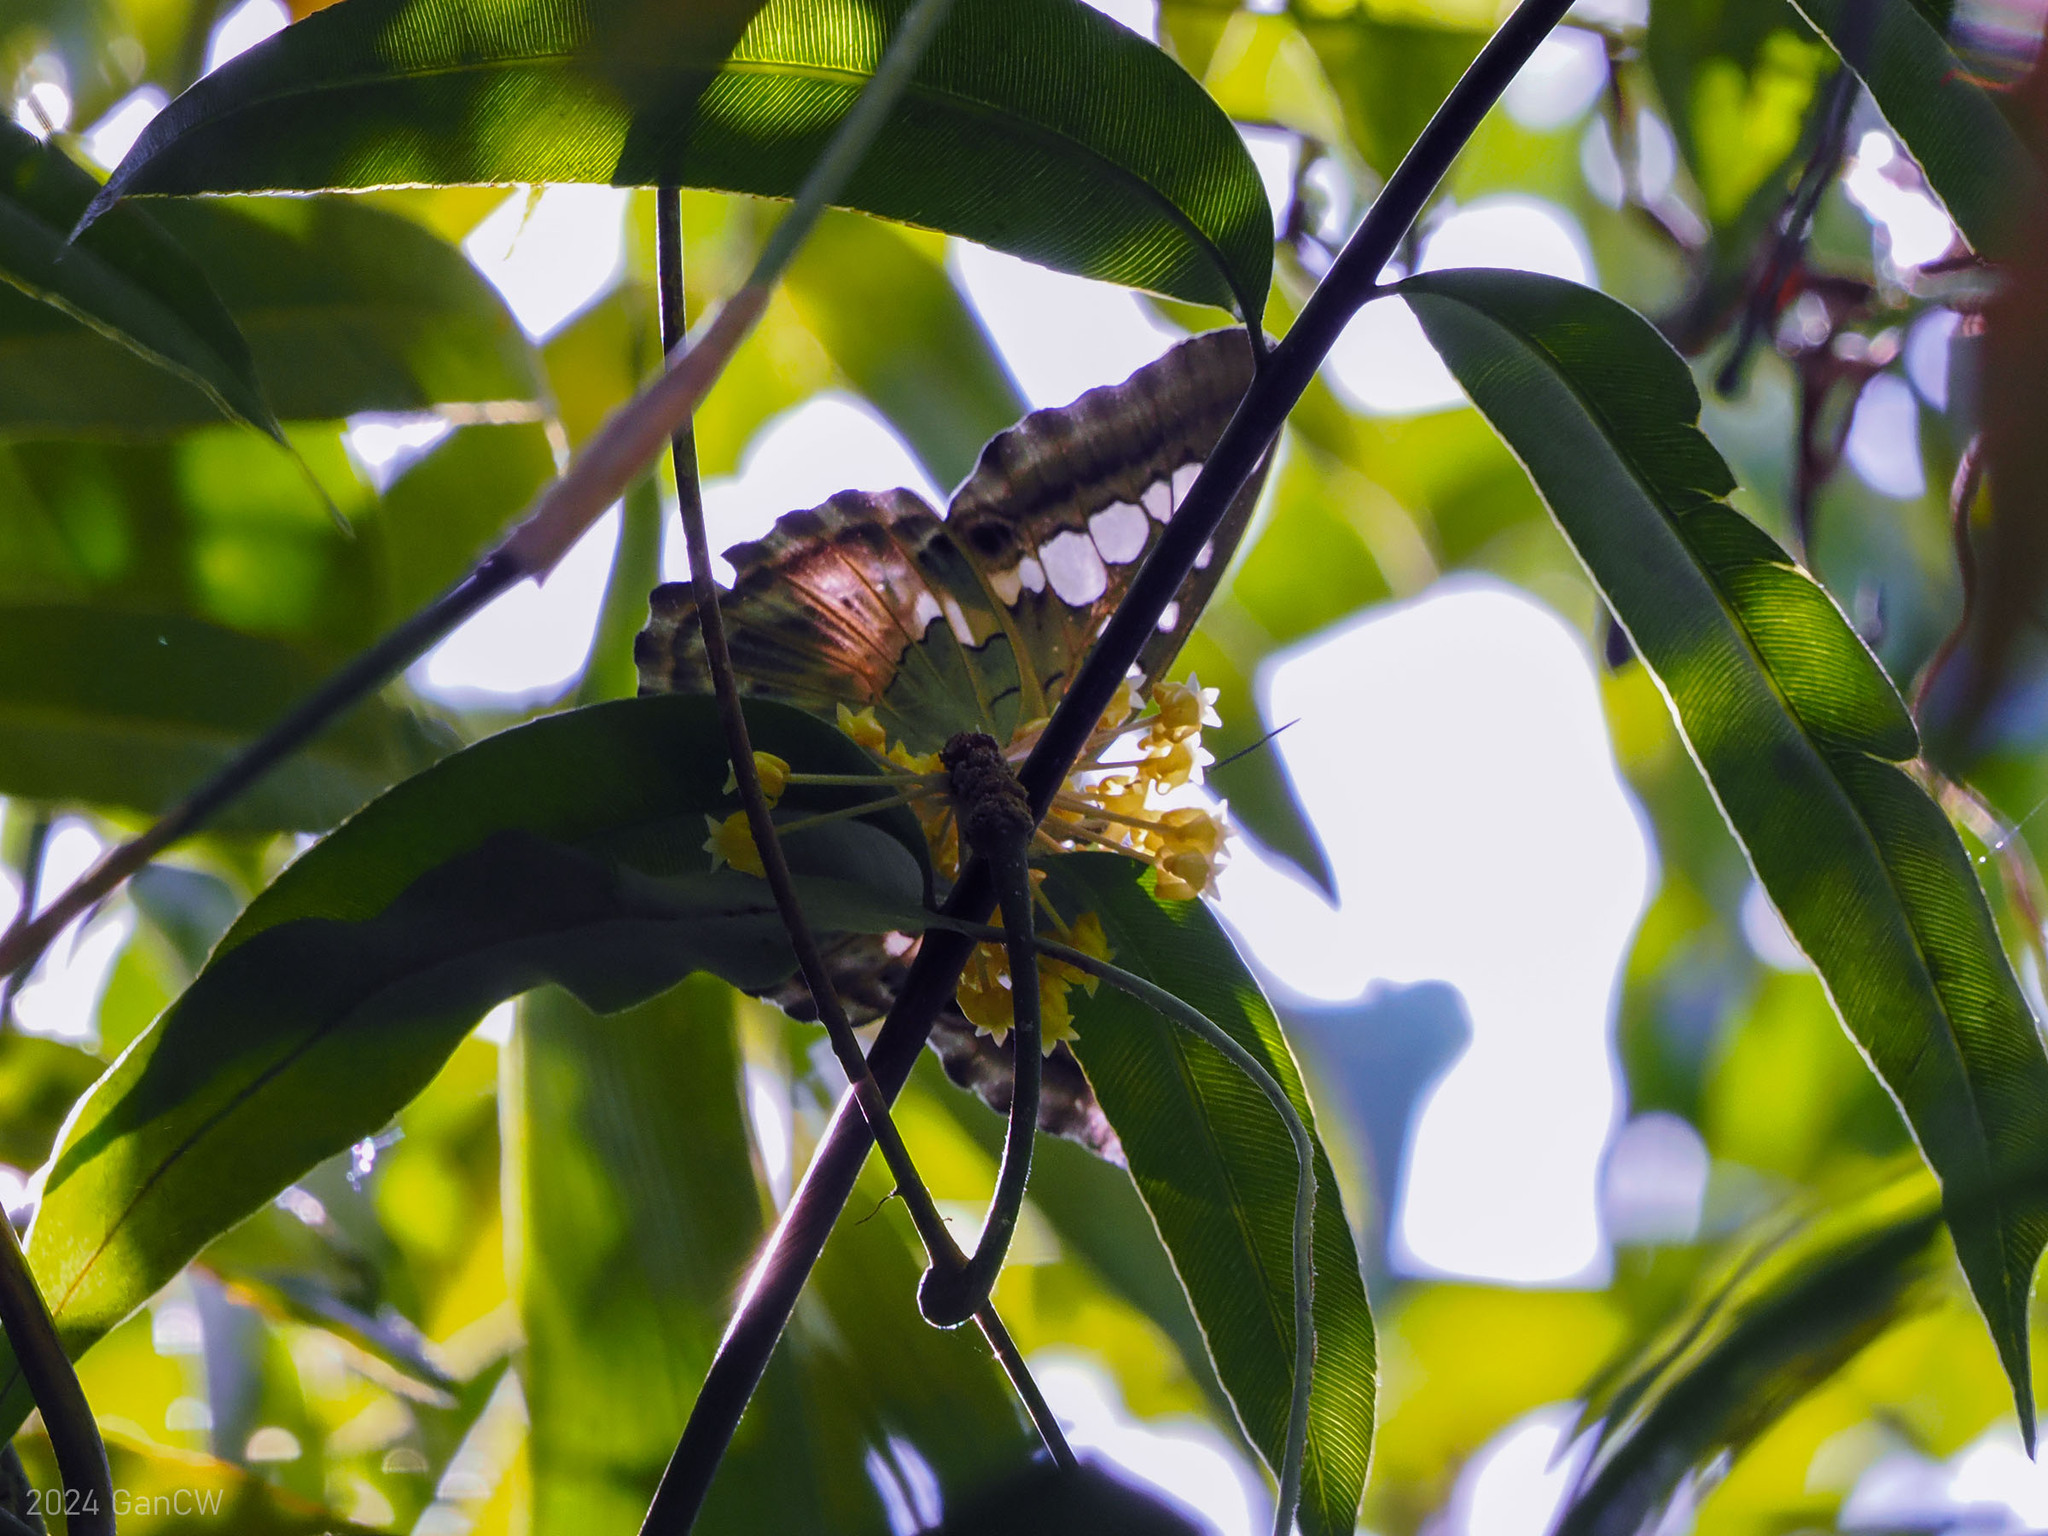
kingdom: Animalia
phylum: Arthropoda
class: Insecta
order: Lepidoptera
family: Nymphalidae
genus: Kallima
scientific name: Kallima sylvia
